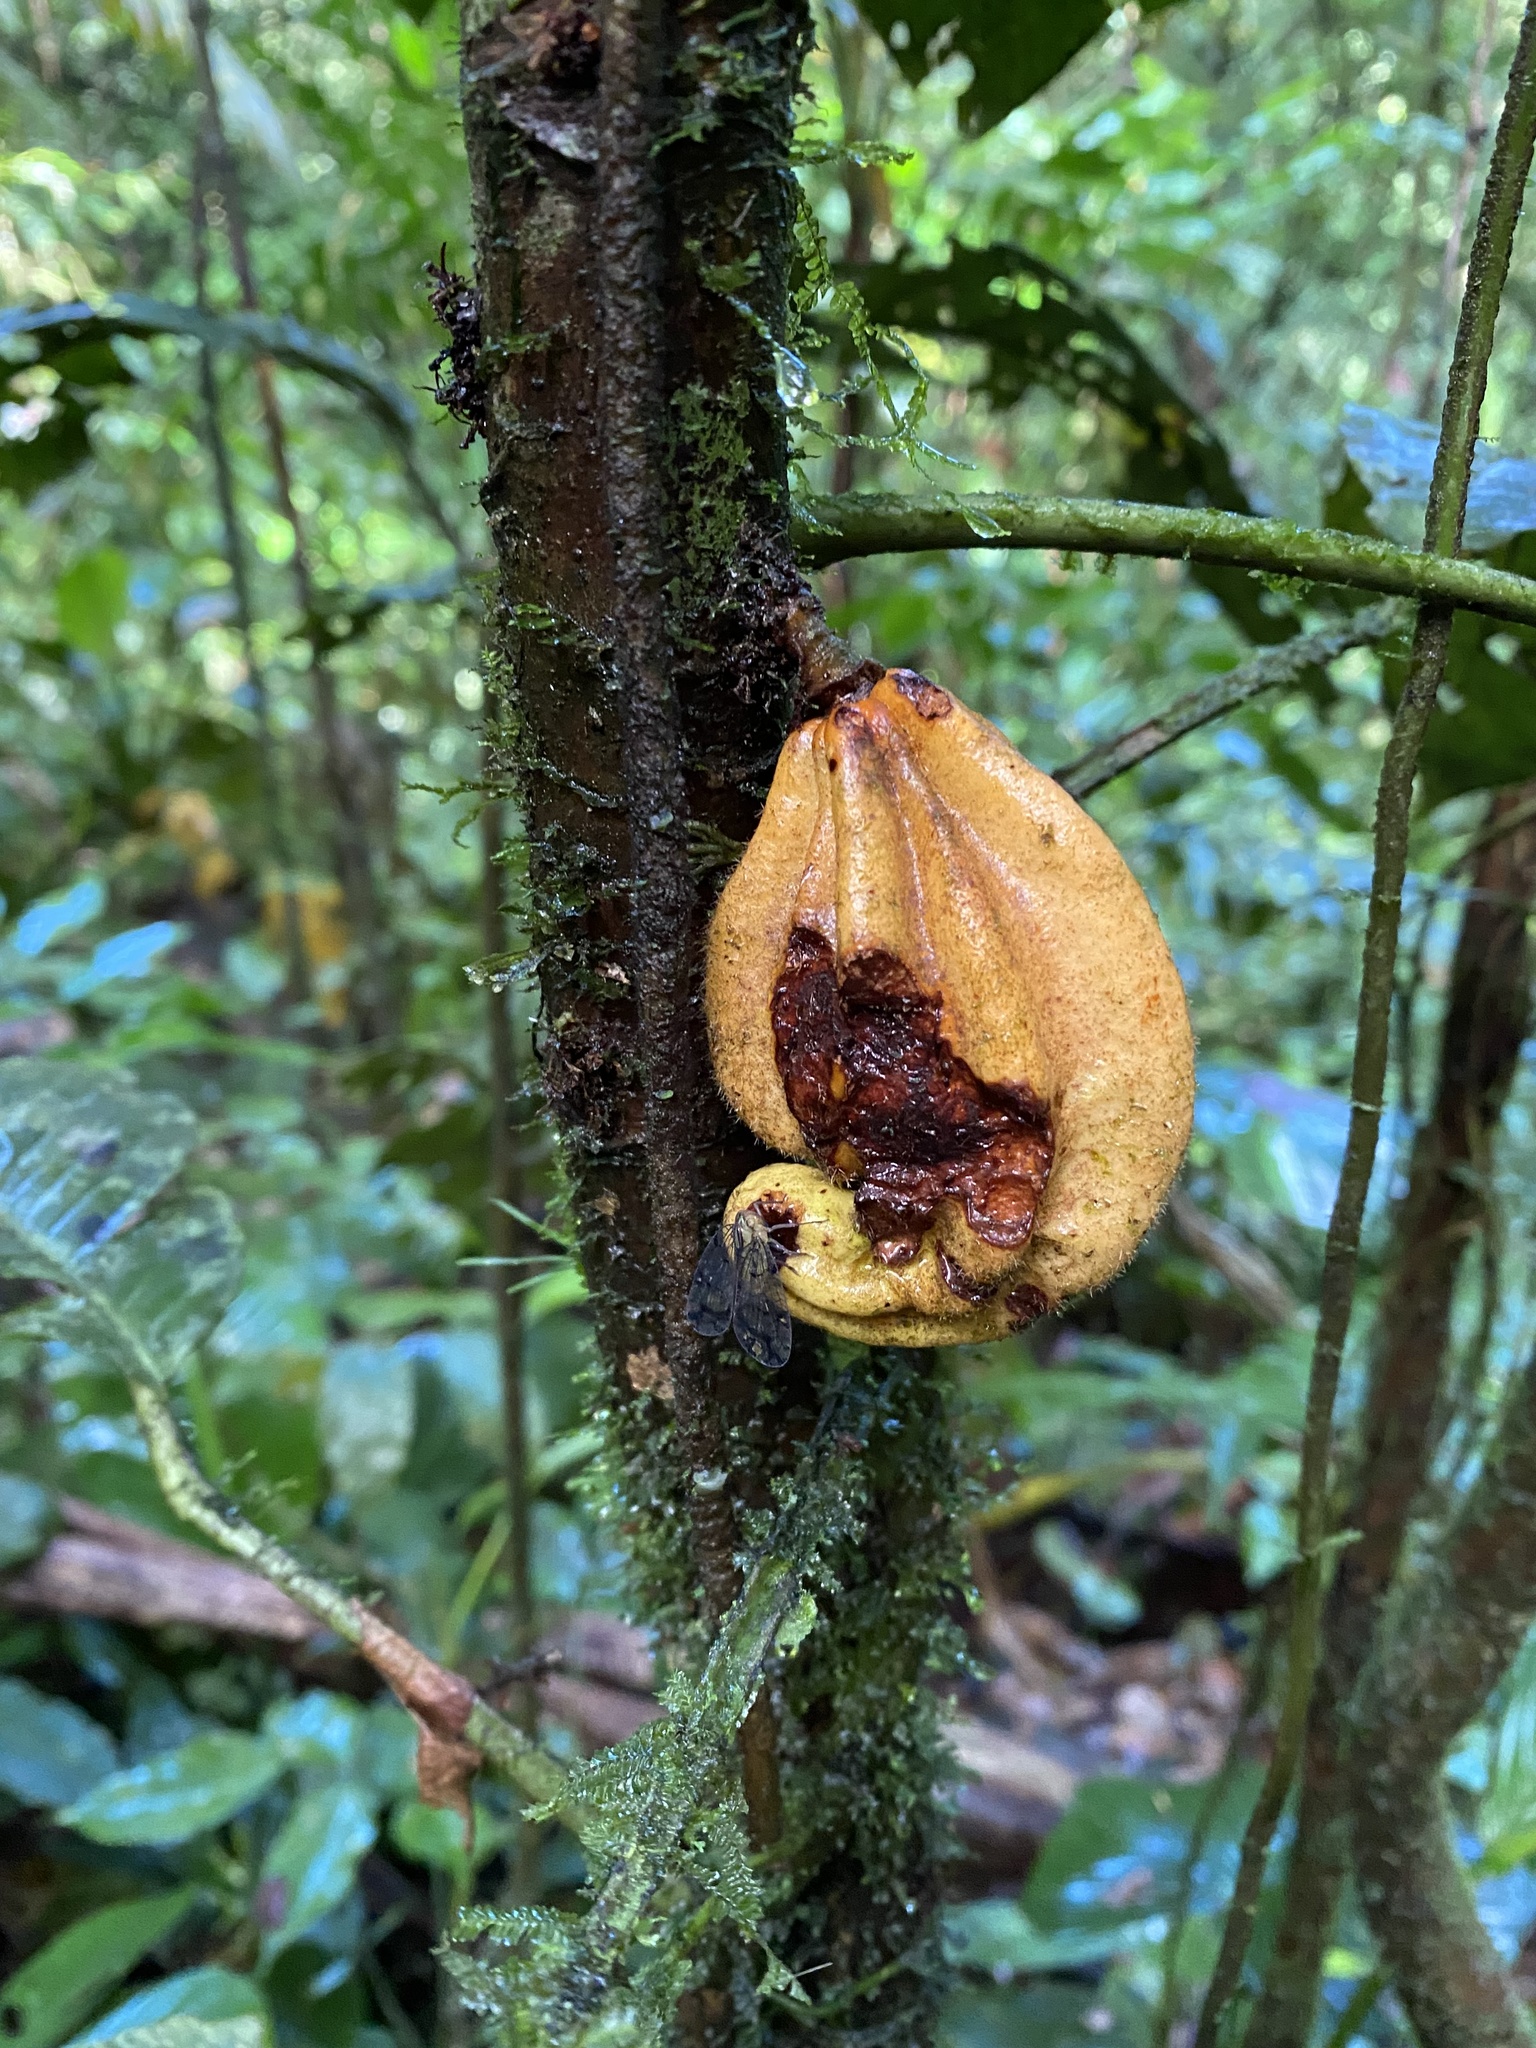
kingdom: Plantae
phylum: Tracheophyta
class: Magnoliopsida
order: Malvales
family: Malvaceae
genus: Herrania
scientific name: Herrania purpurea
